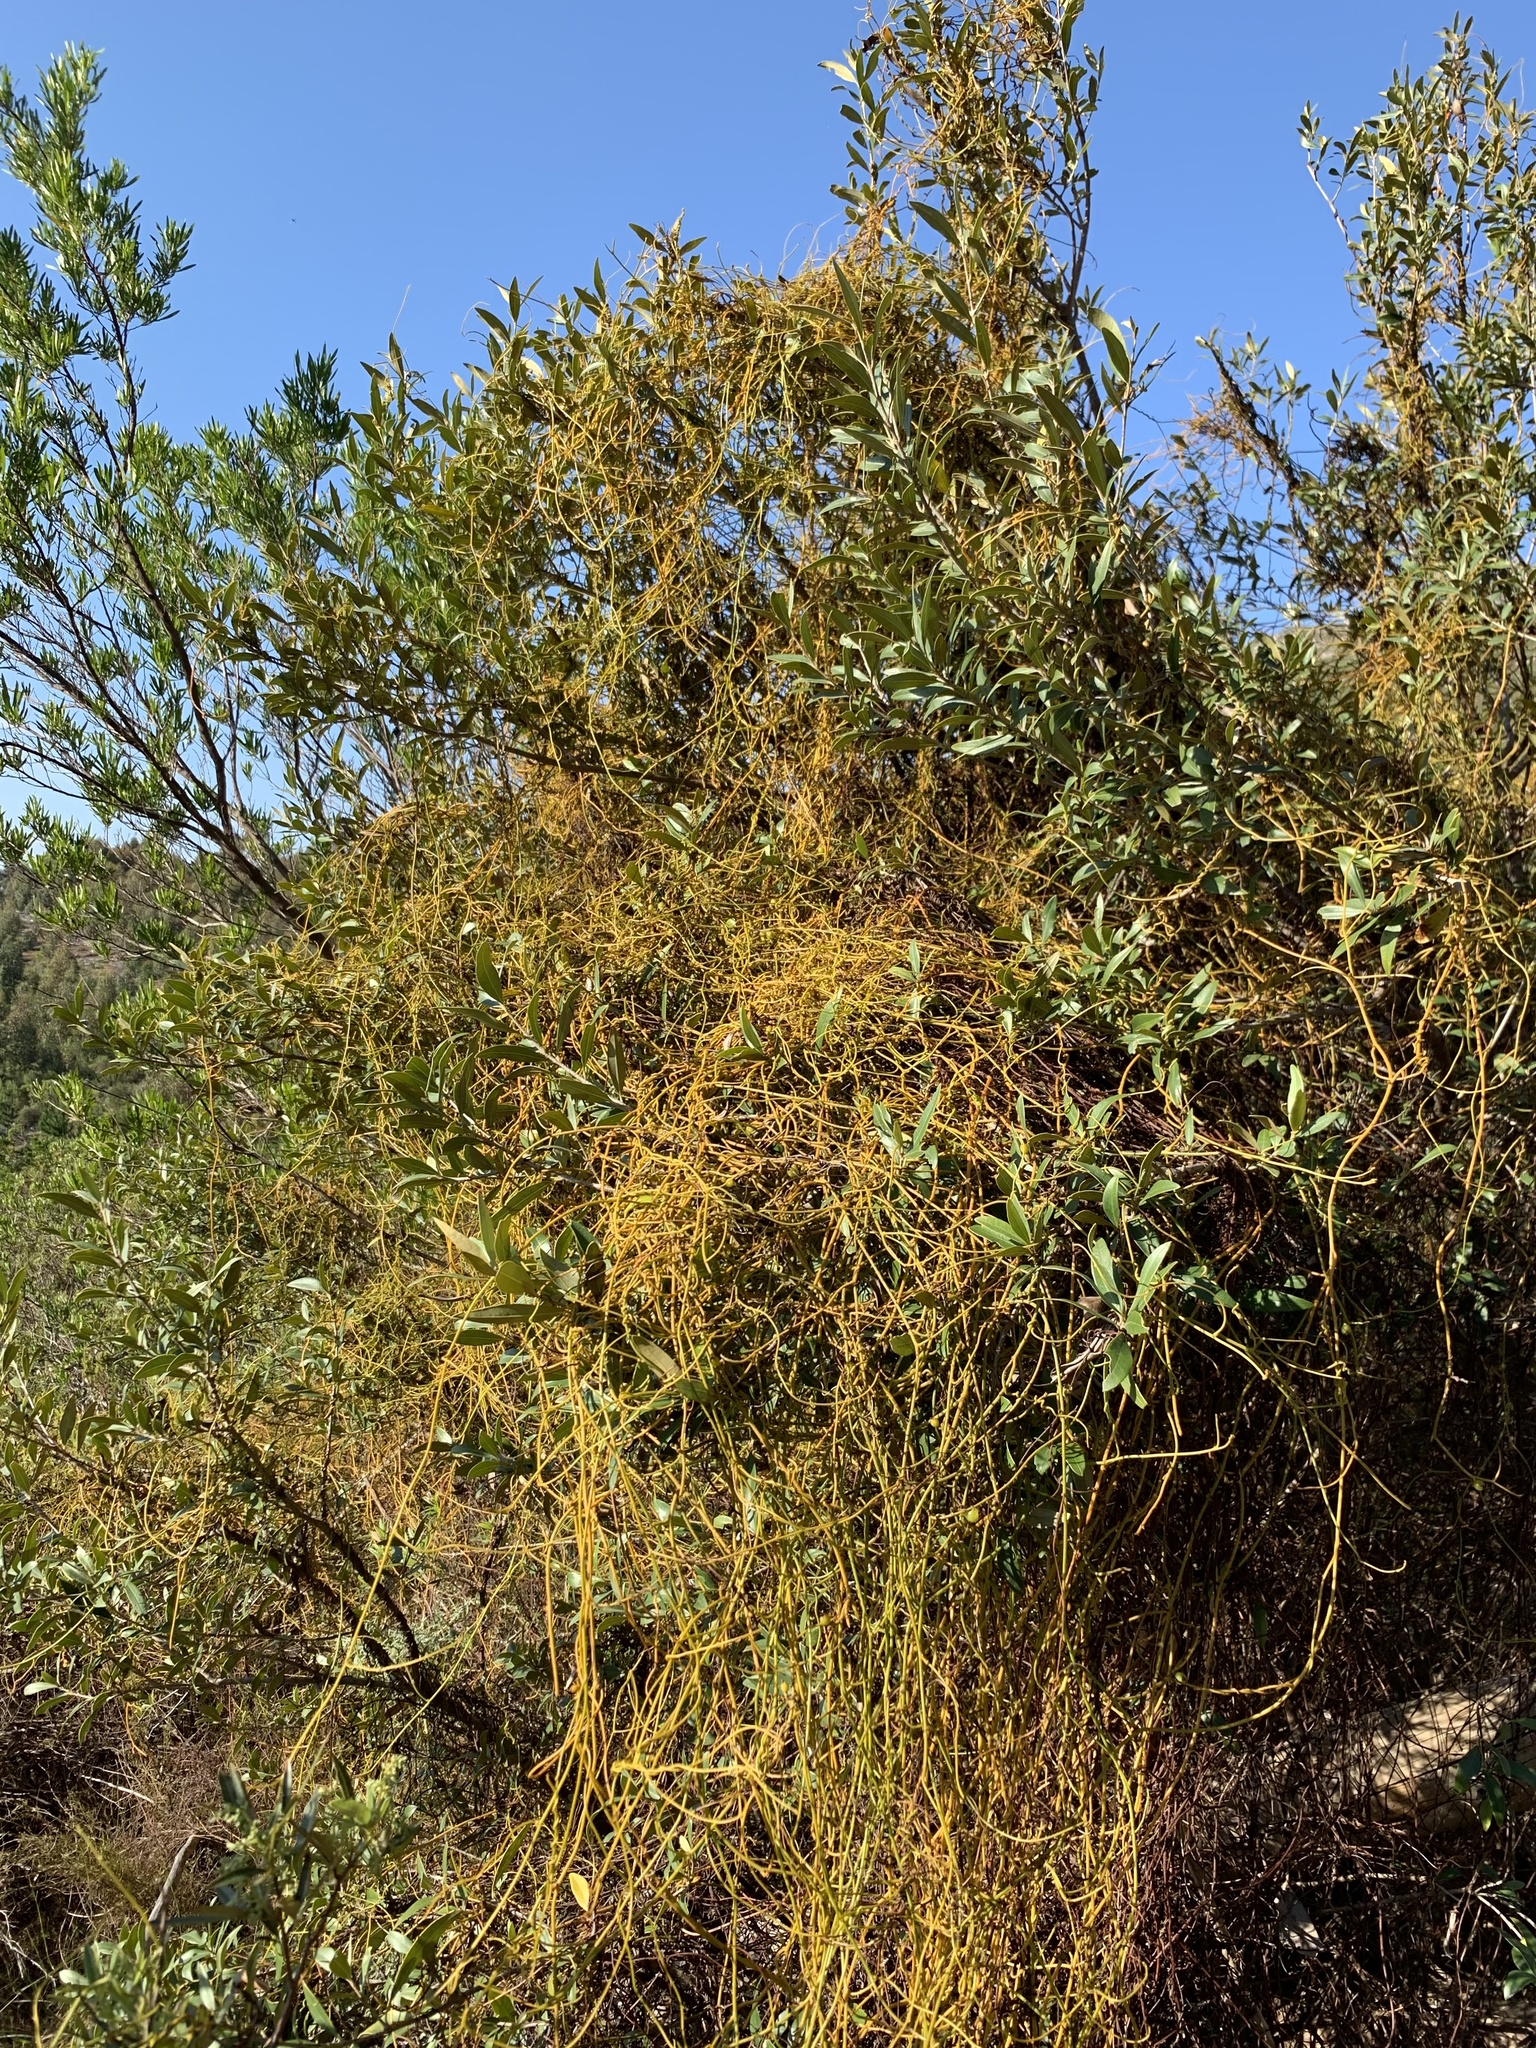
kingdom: Plantae
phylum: Tracheophyta
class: Magnoliopsida
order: Laurales
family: Lauraceae
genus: Cassytha
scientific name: Cassytha ciliolata
